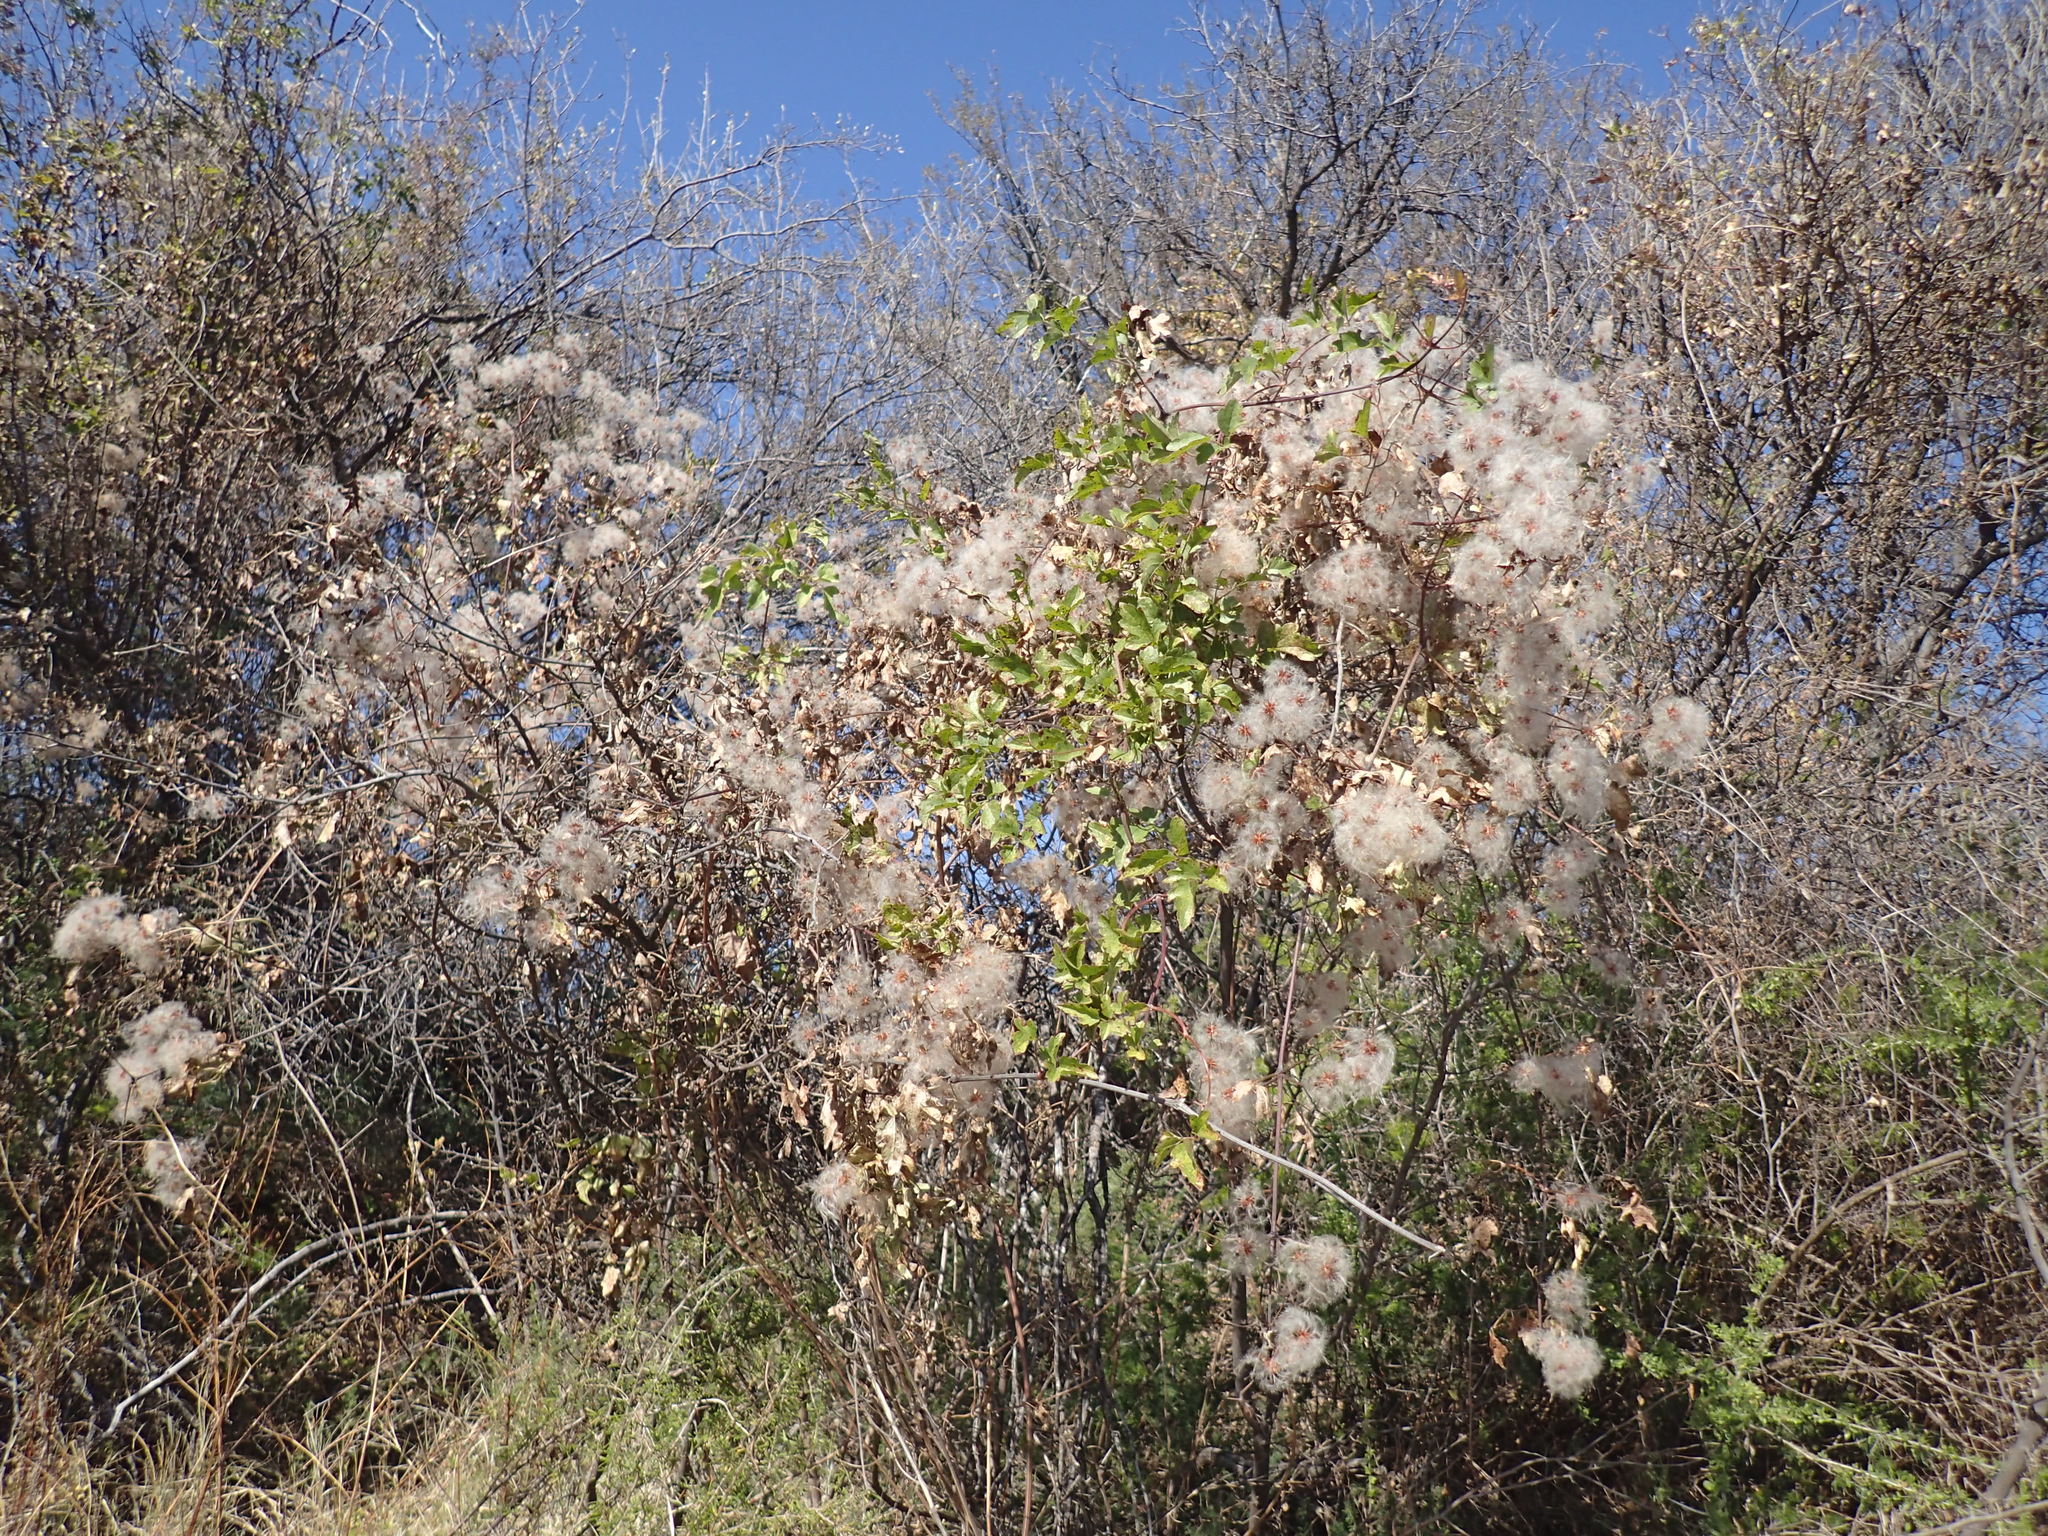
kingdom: Plantae
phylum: Tracheophyta
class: Magnoliopsida
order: Ranunculales
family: Ranunculaceae
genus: Clematis
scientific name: Clematis brachiata
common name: Traveler's-joy
